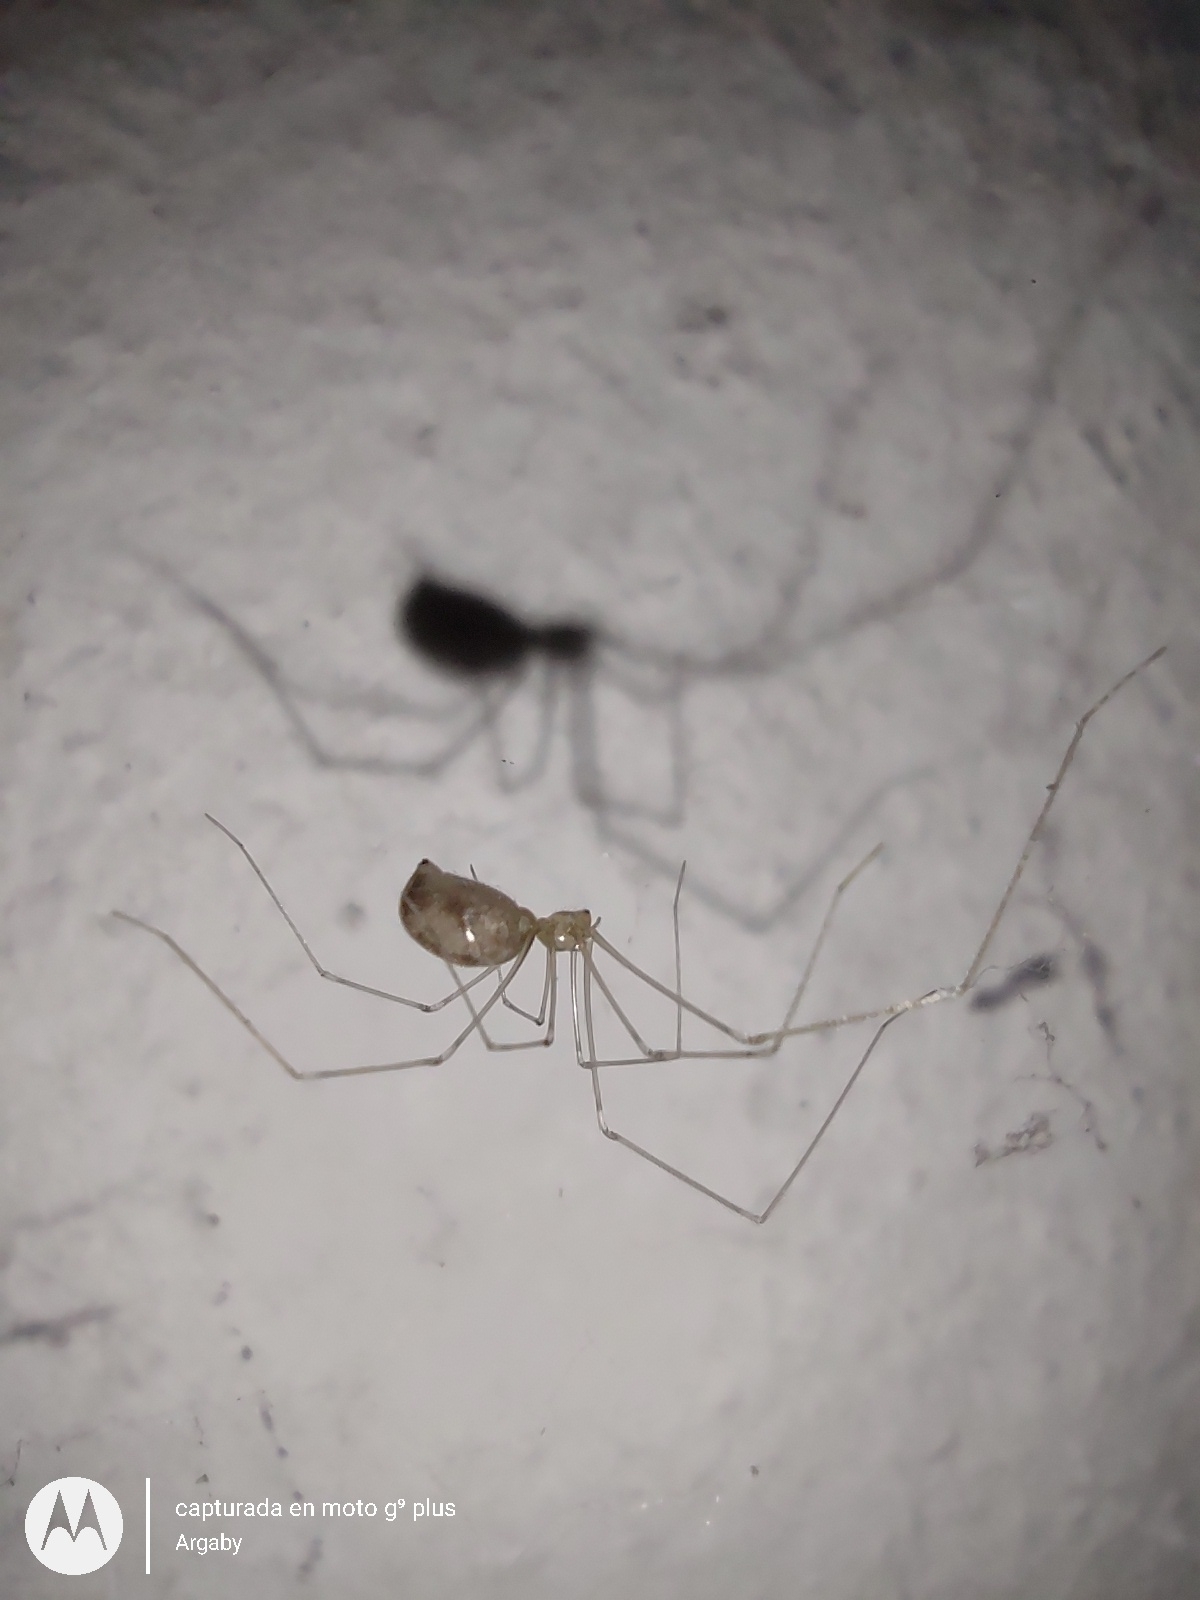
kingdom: Animalia
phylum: Arthropoda
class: Arachnida
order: Araneae
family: Pholcidae
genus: Pholcus
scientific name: Pholcus phalangioides
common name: Longbodied cellar spider
